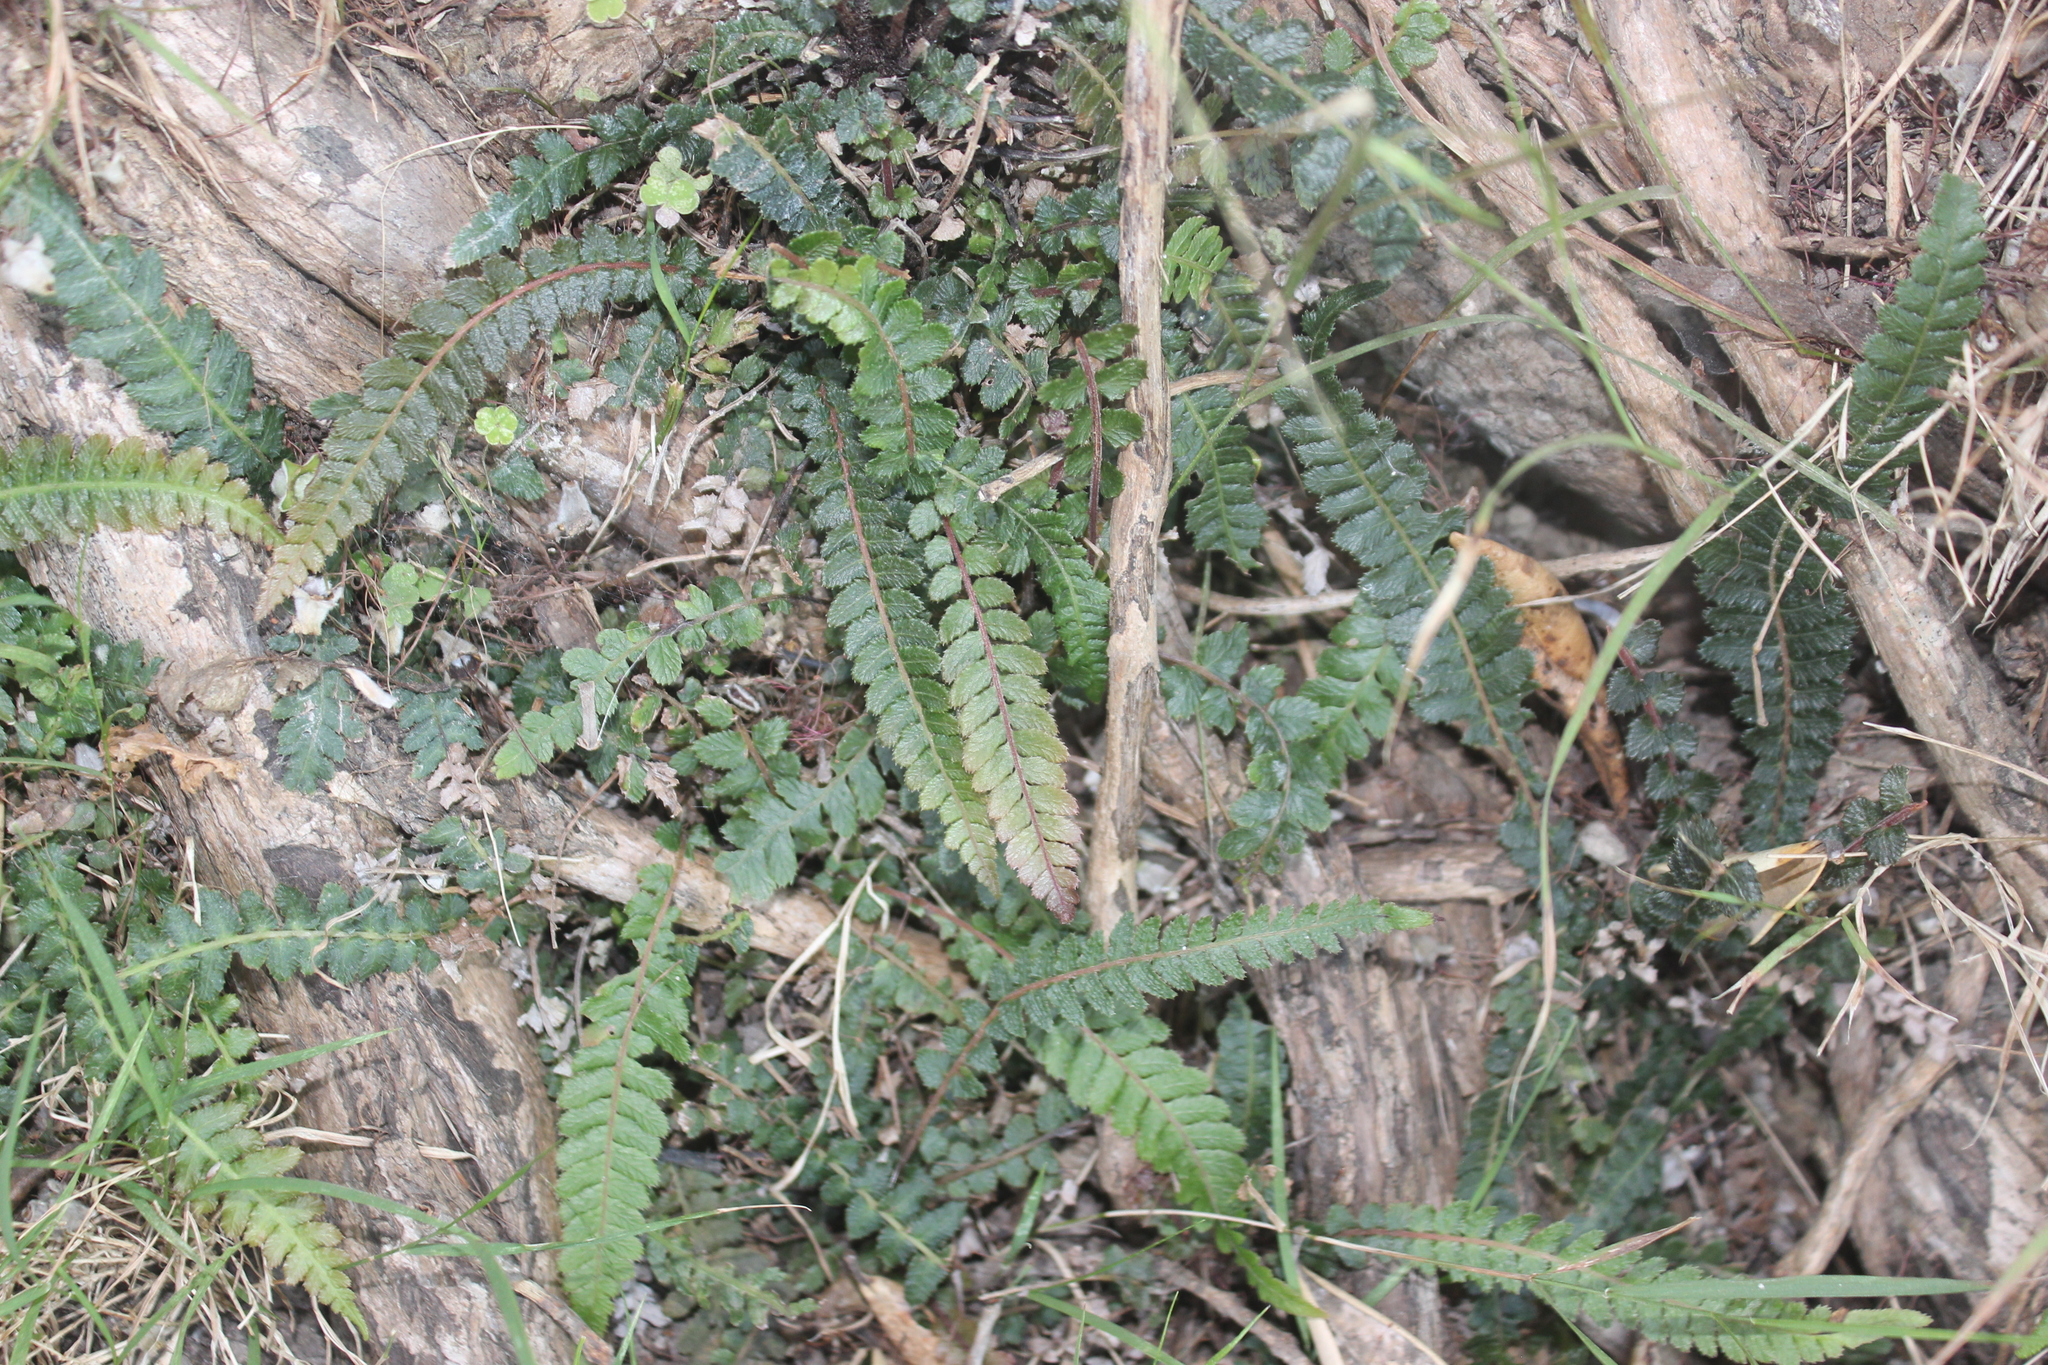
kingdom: Plantae
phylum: Tracheophyta
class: Polypodiopsida
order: Polypodiales
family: Blechnaceae
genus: Doodia
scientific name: Doodia australis
